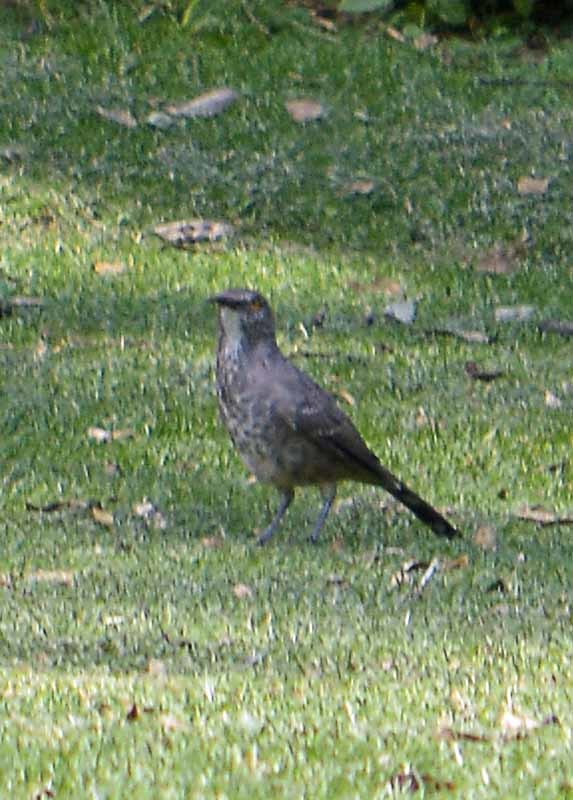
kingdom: Animalia
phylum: Chordata
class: Aves
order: Passeriformes
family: Mimidae
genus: Toxostoma
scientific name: Toxostoma curvirostre
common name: Curve-billed thrasher
